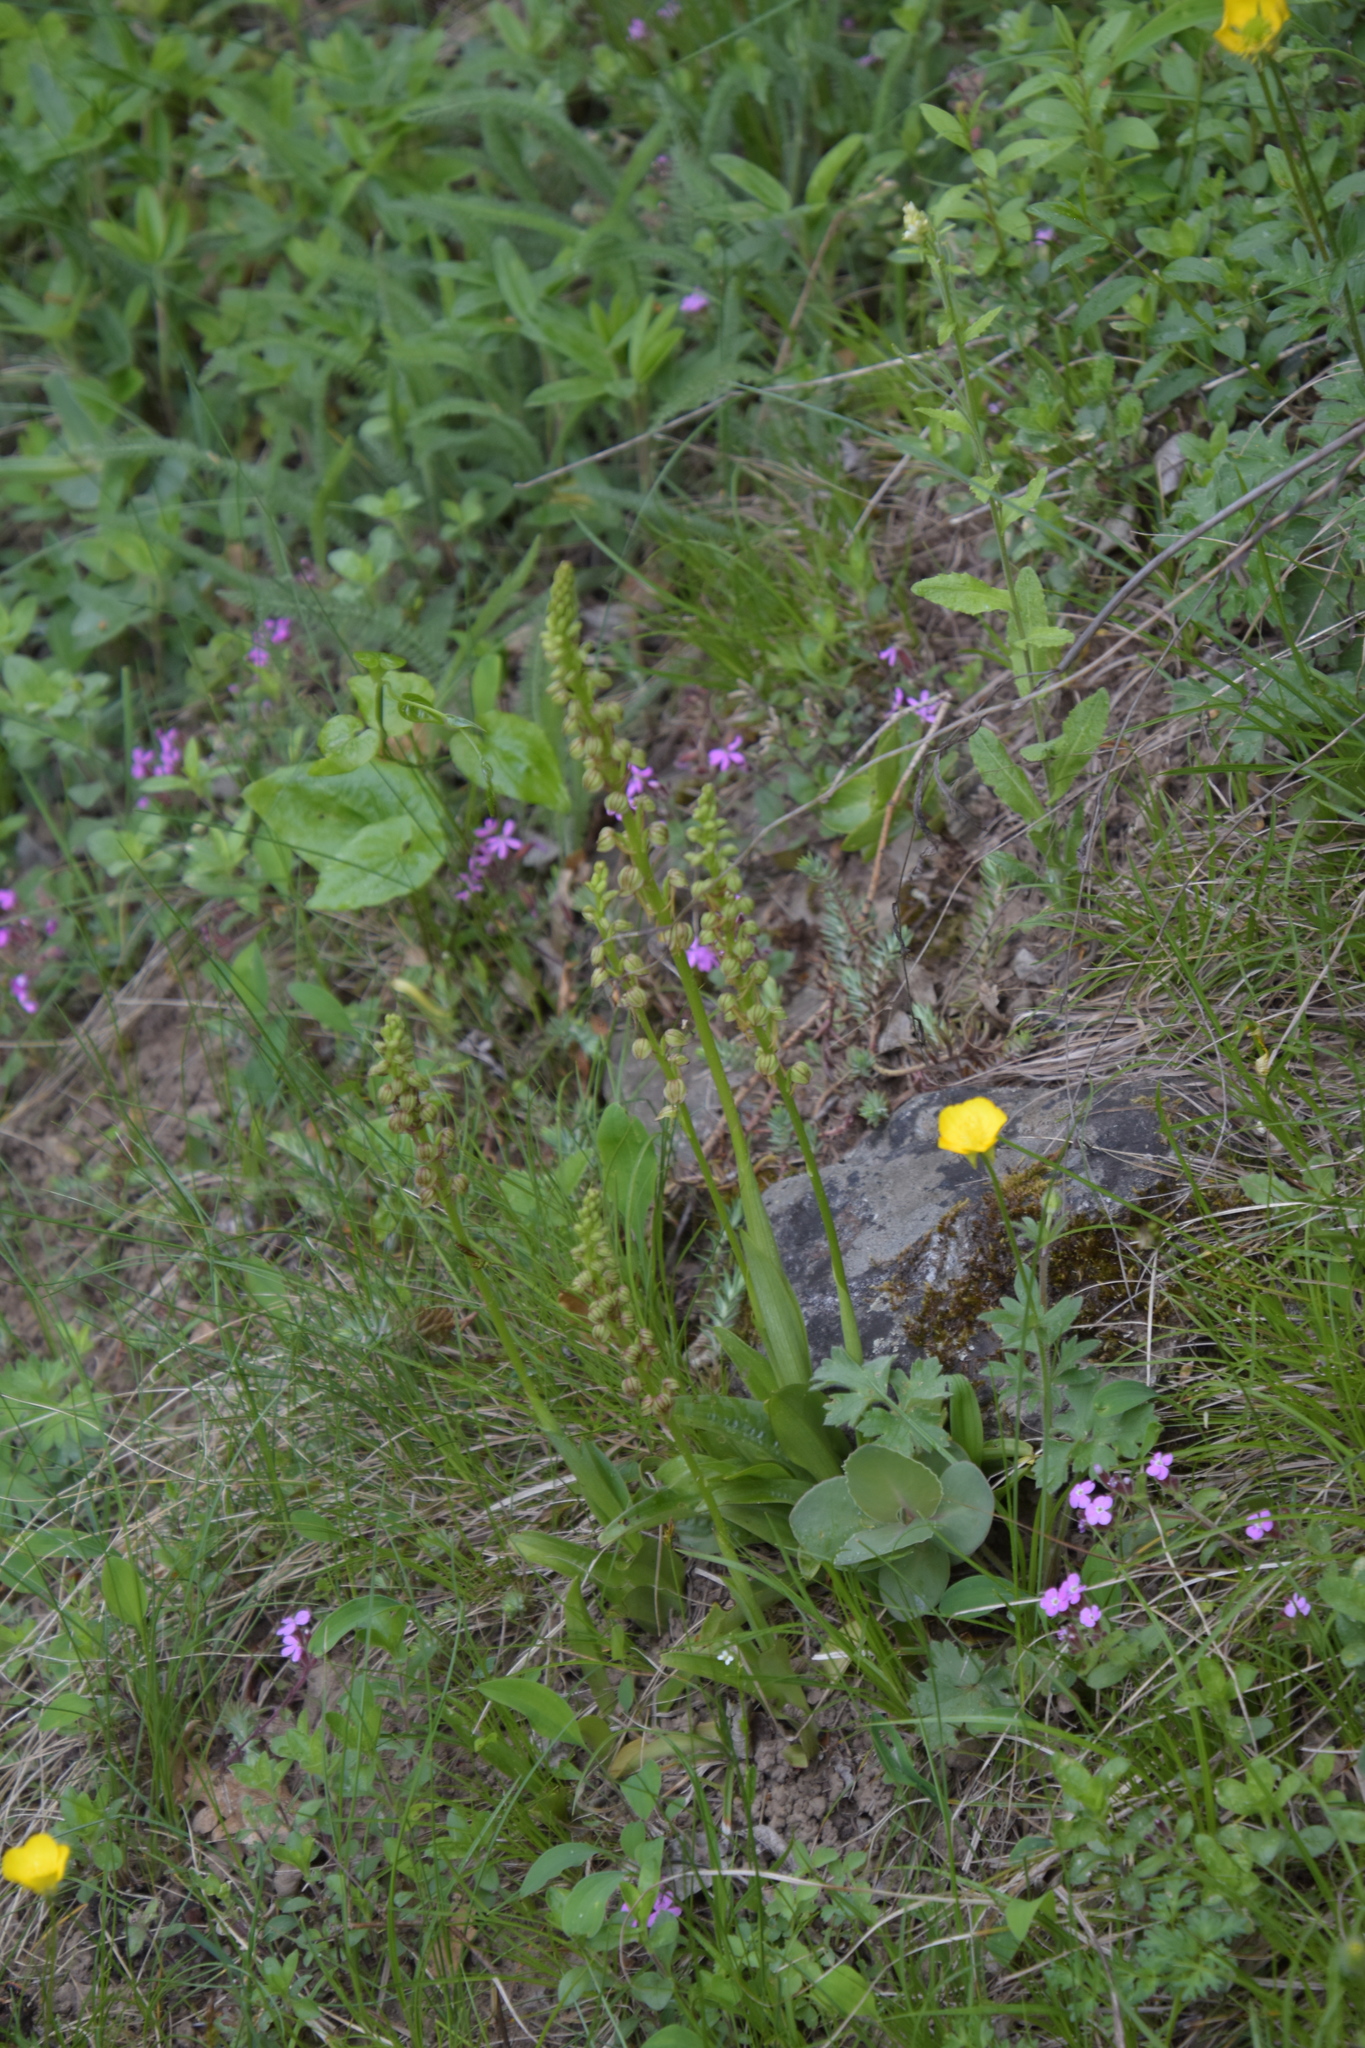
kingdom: Plantae
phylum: Tracheophyta
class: Liliopsida
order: Asparagales
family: Orchidaceae
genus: Orchis
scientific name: Orchis anthropophora
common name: Man orchid
